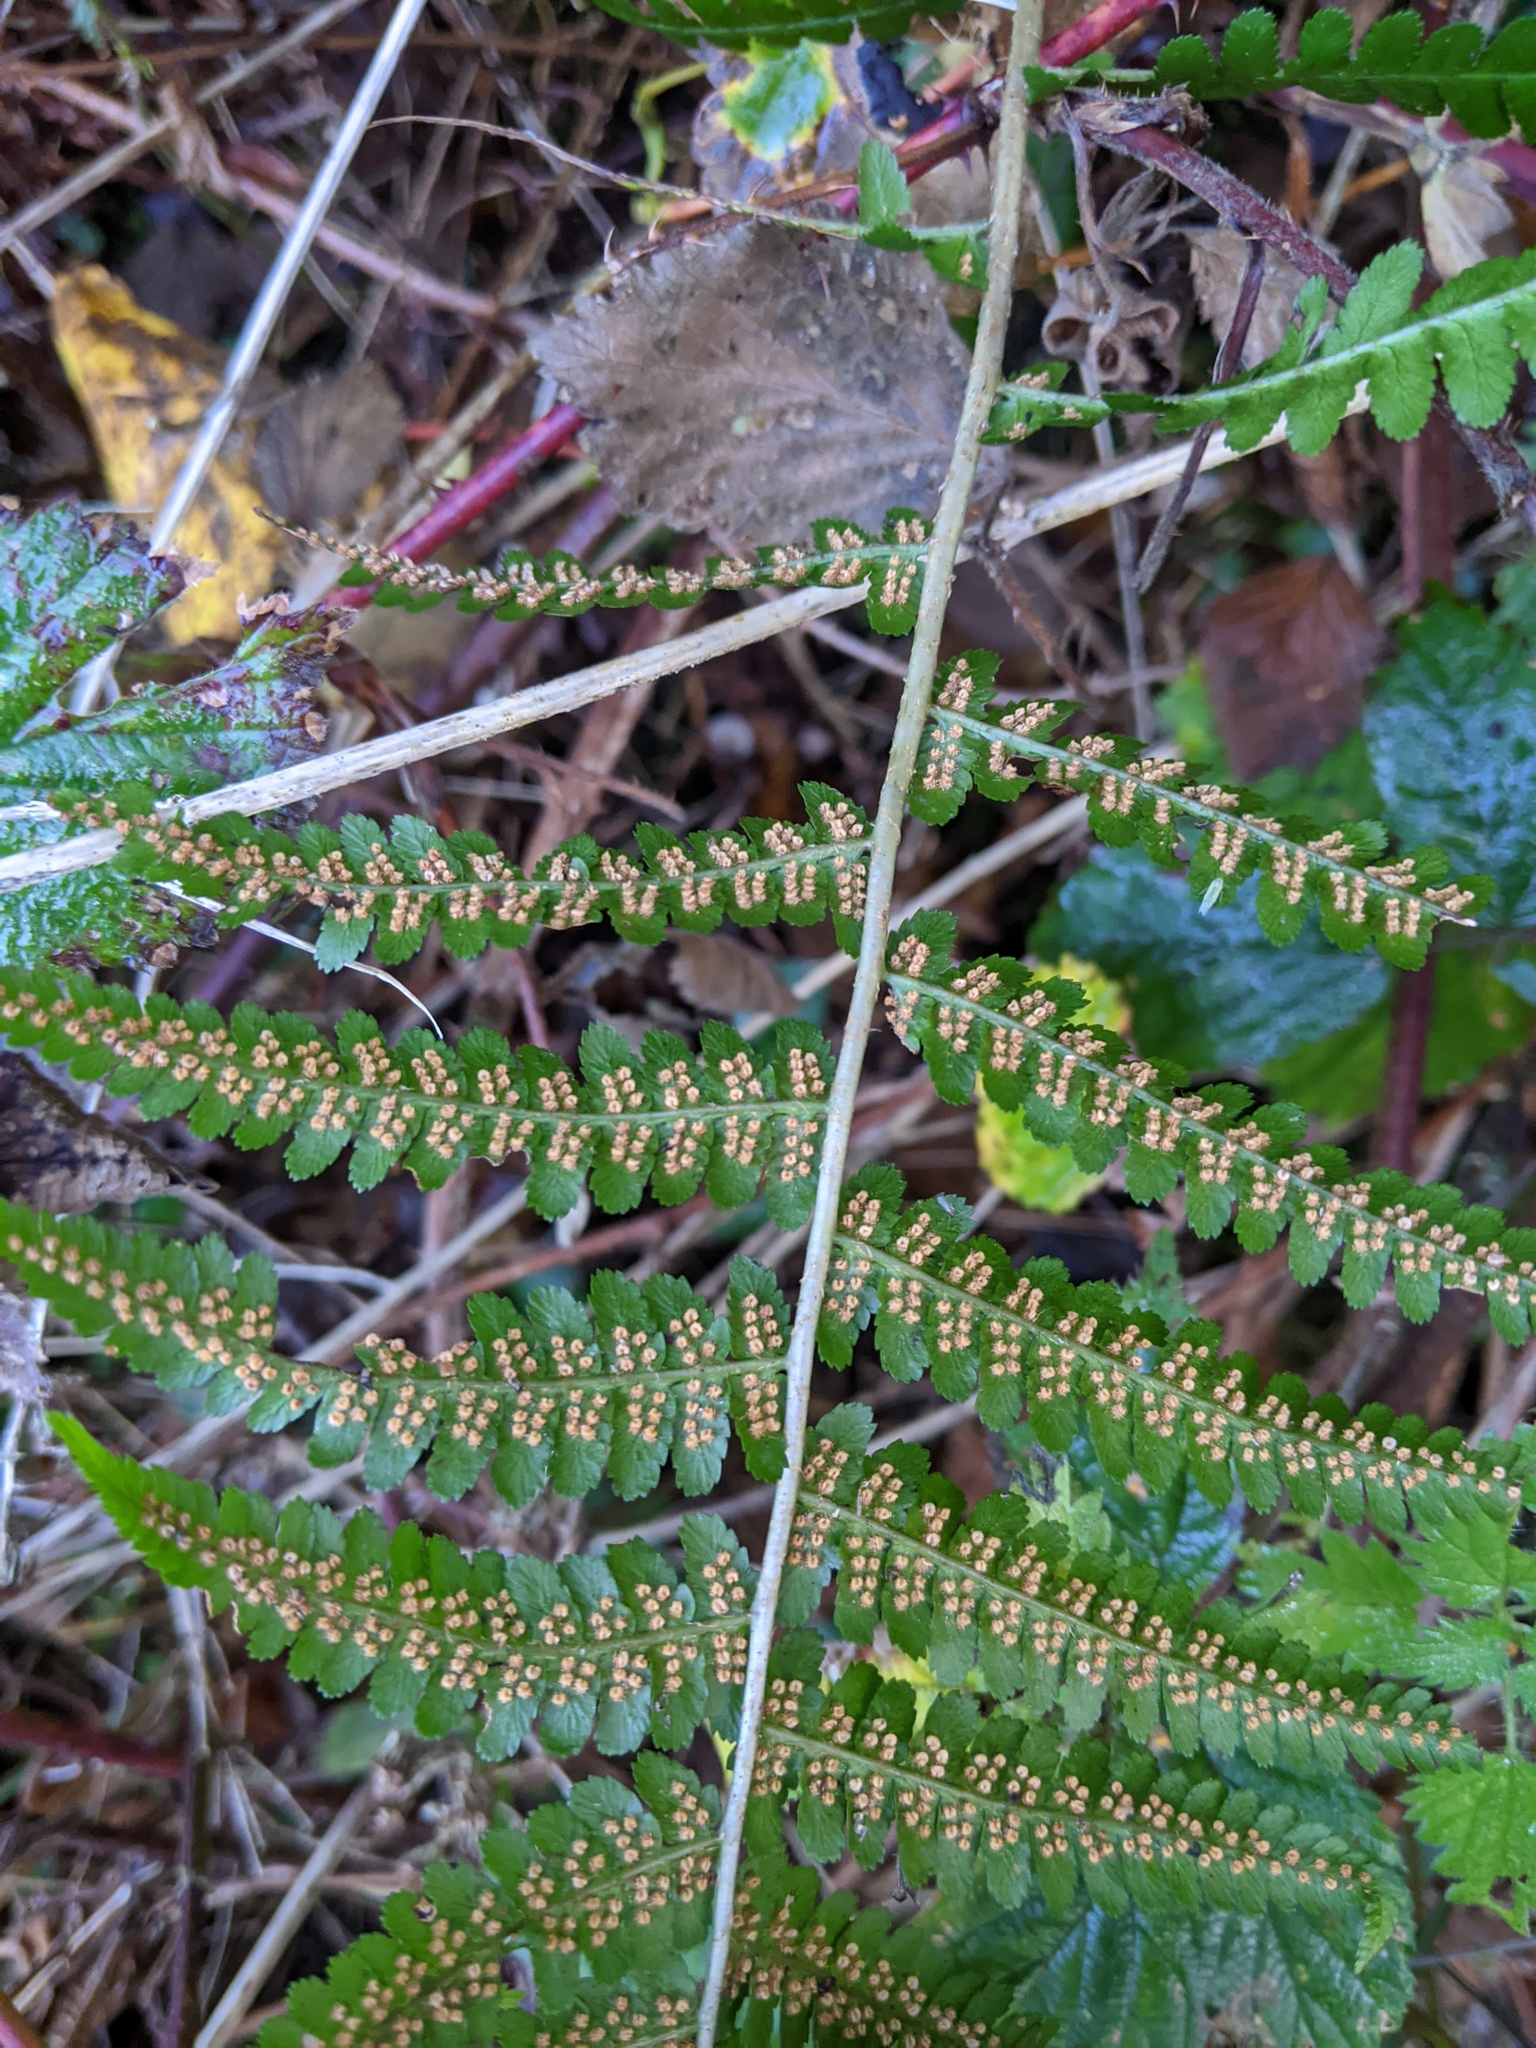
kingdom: Plantae
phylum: Tracheophyta
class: Polypodiopsida
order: Polypodiales
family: Dryopteridaceae
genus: Dryopteris
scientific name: Dryopteris filix-mas
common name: Male fern
